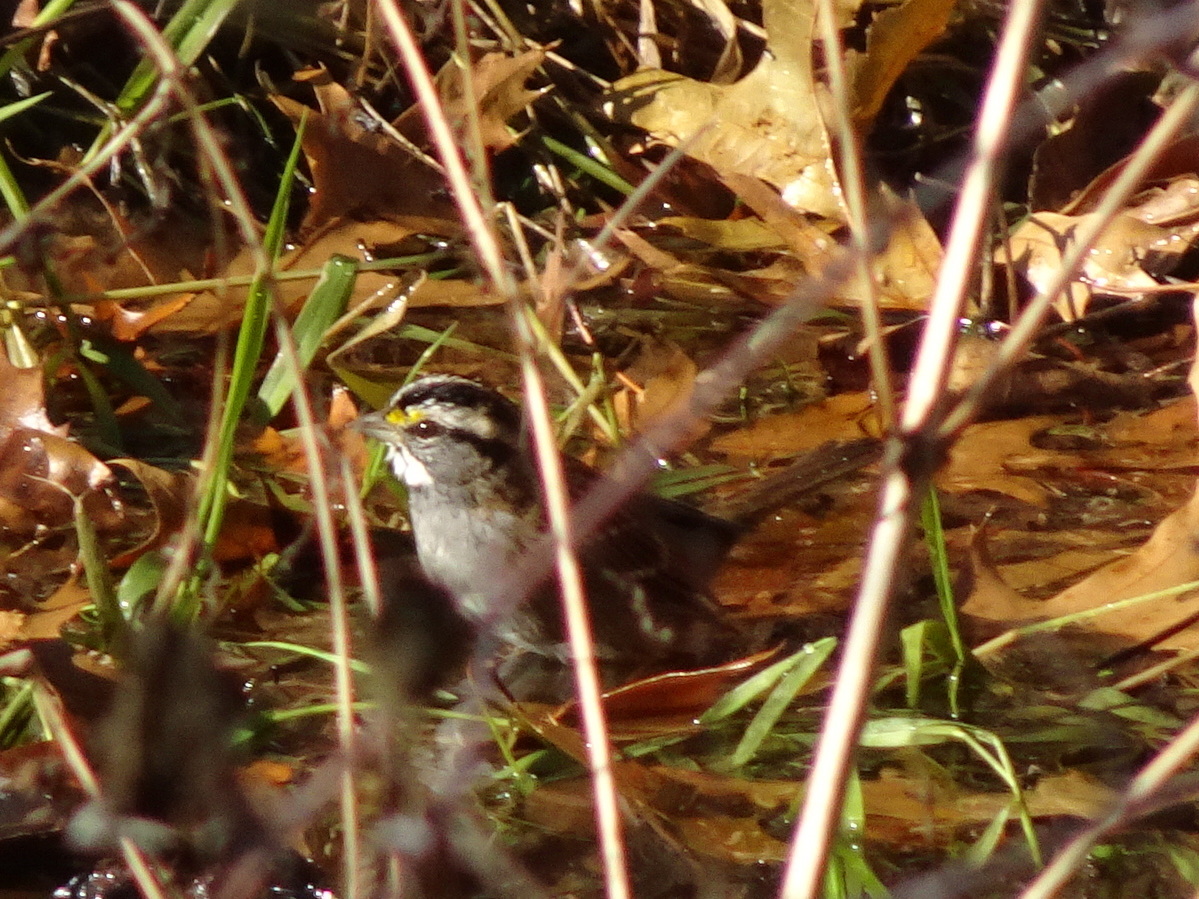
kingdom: Animalia
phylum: Chordata
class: Aves
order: Passeriformes
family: Passerellidae
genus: Zonotrichia
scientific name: Zonotrichia albicollis
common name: White-throated sparrow
